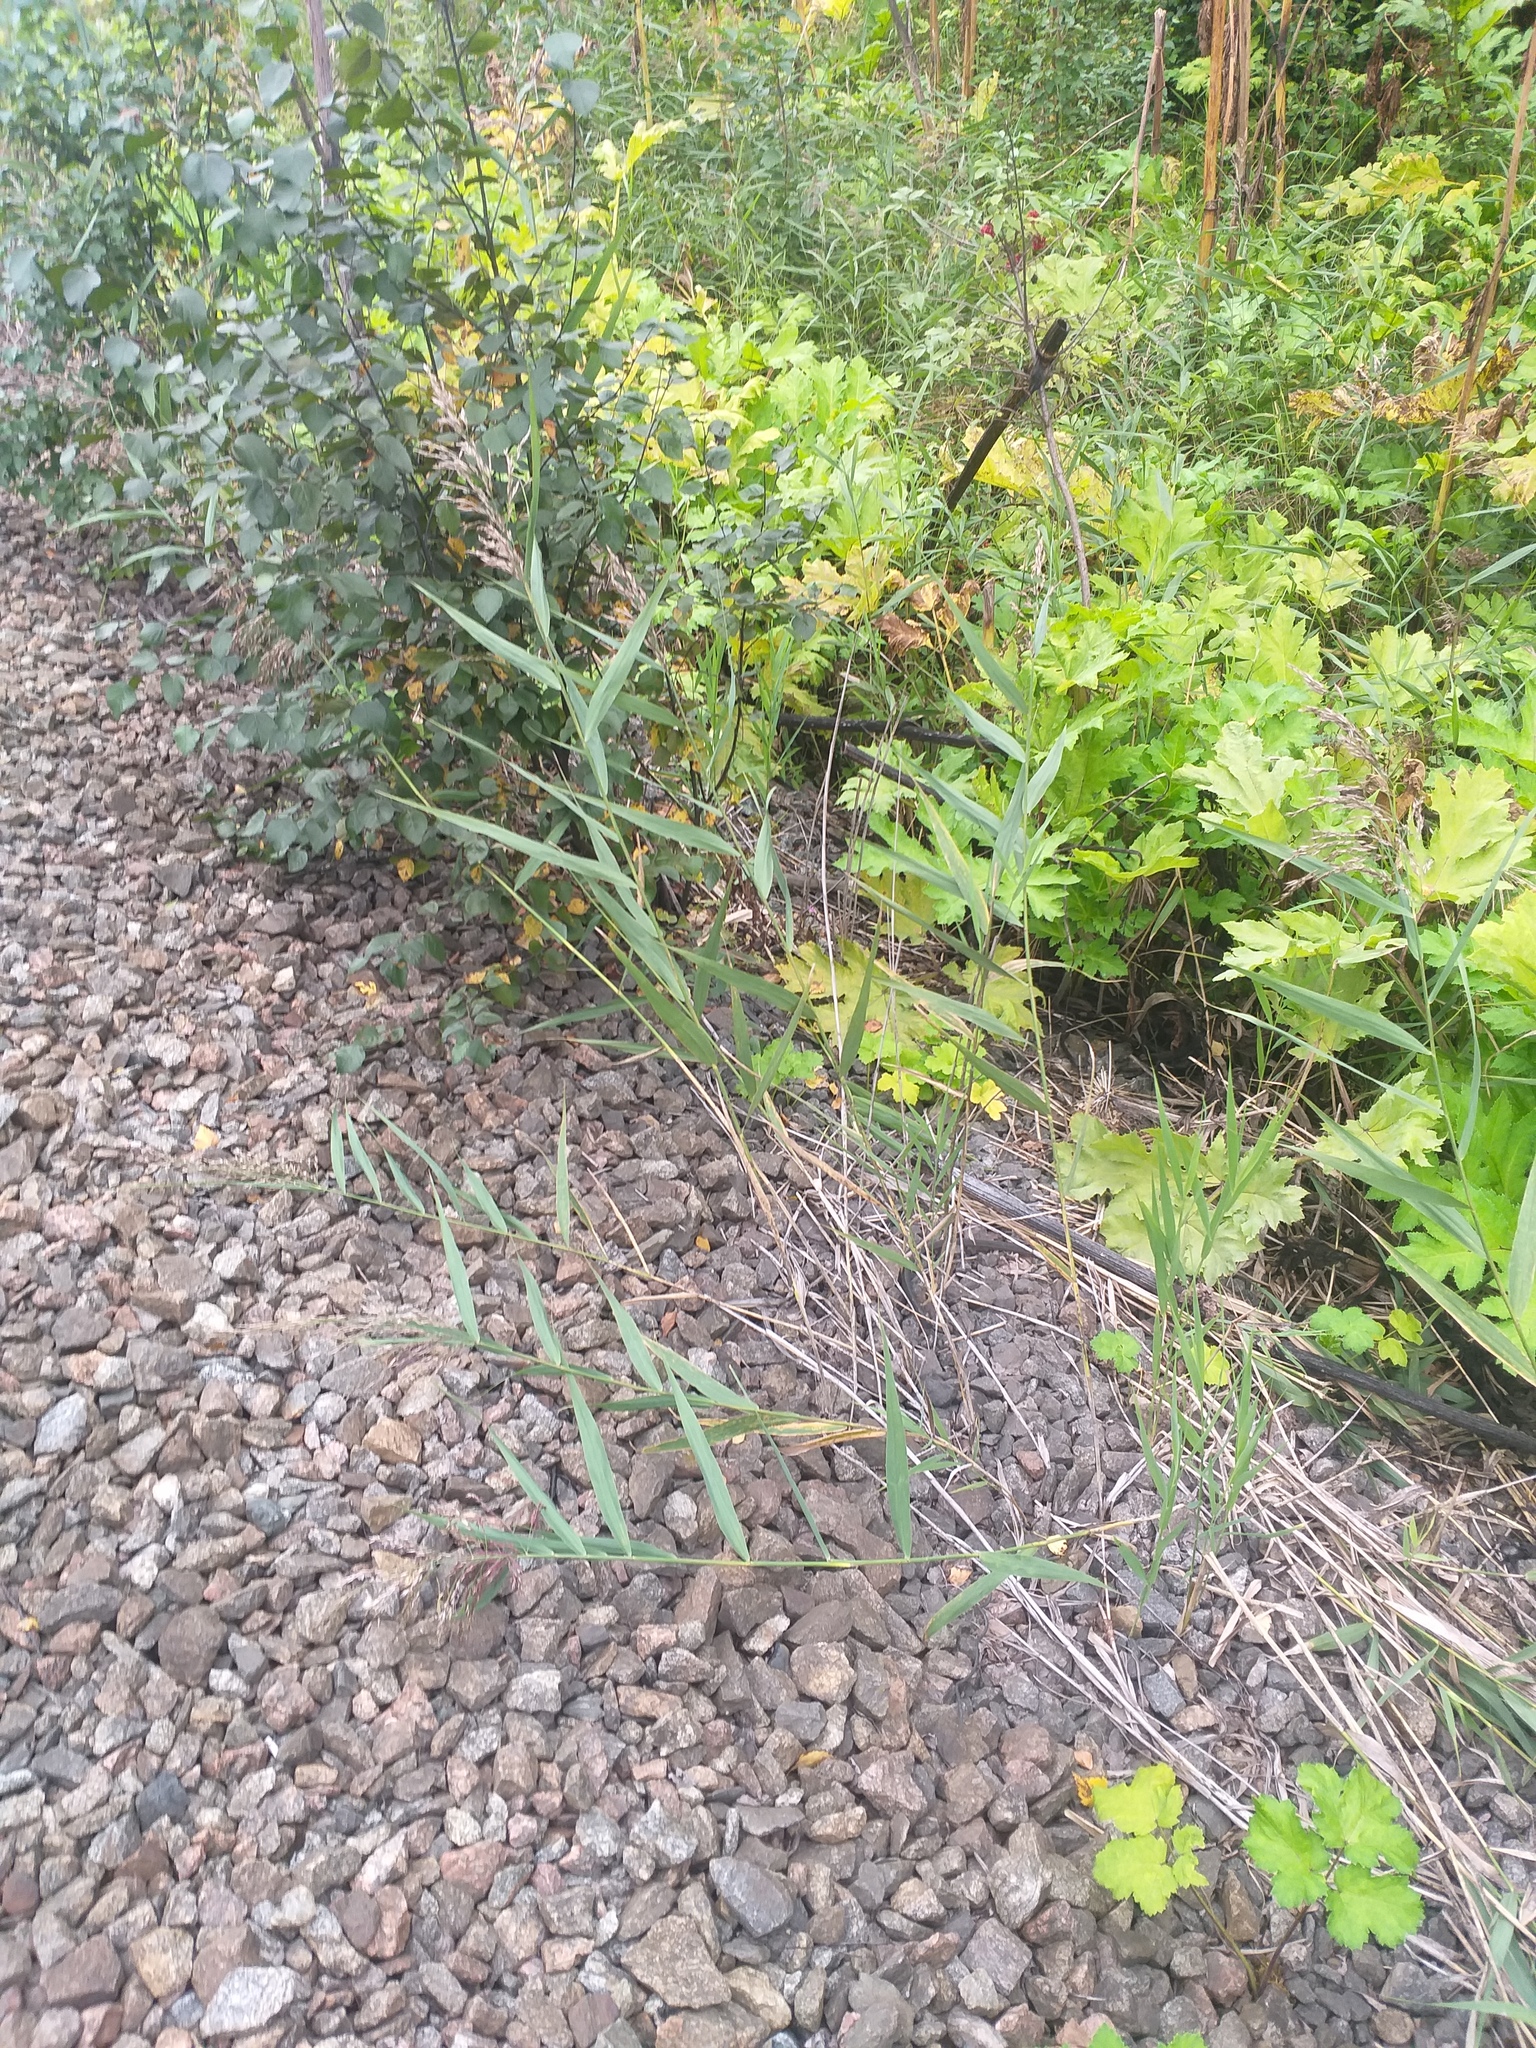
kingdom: Plantae
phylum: Tracheophyta
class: Liliopsida
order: Poales
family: Poaceae
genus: Phragmites
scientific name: Phragmites australis
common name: Common reed
